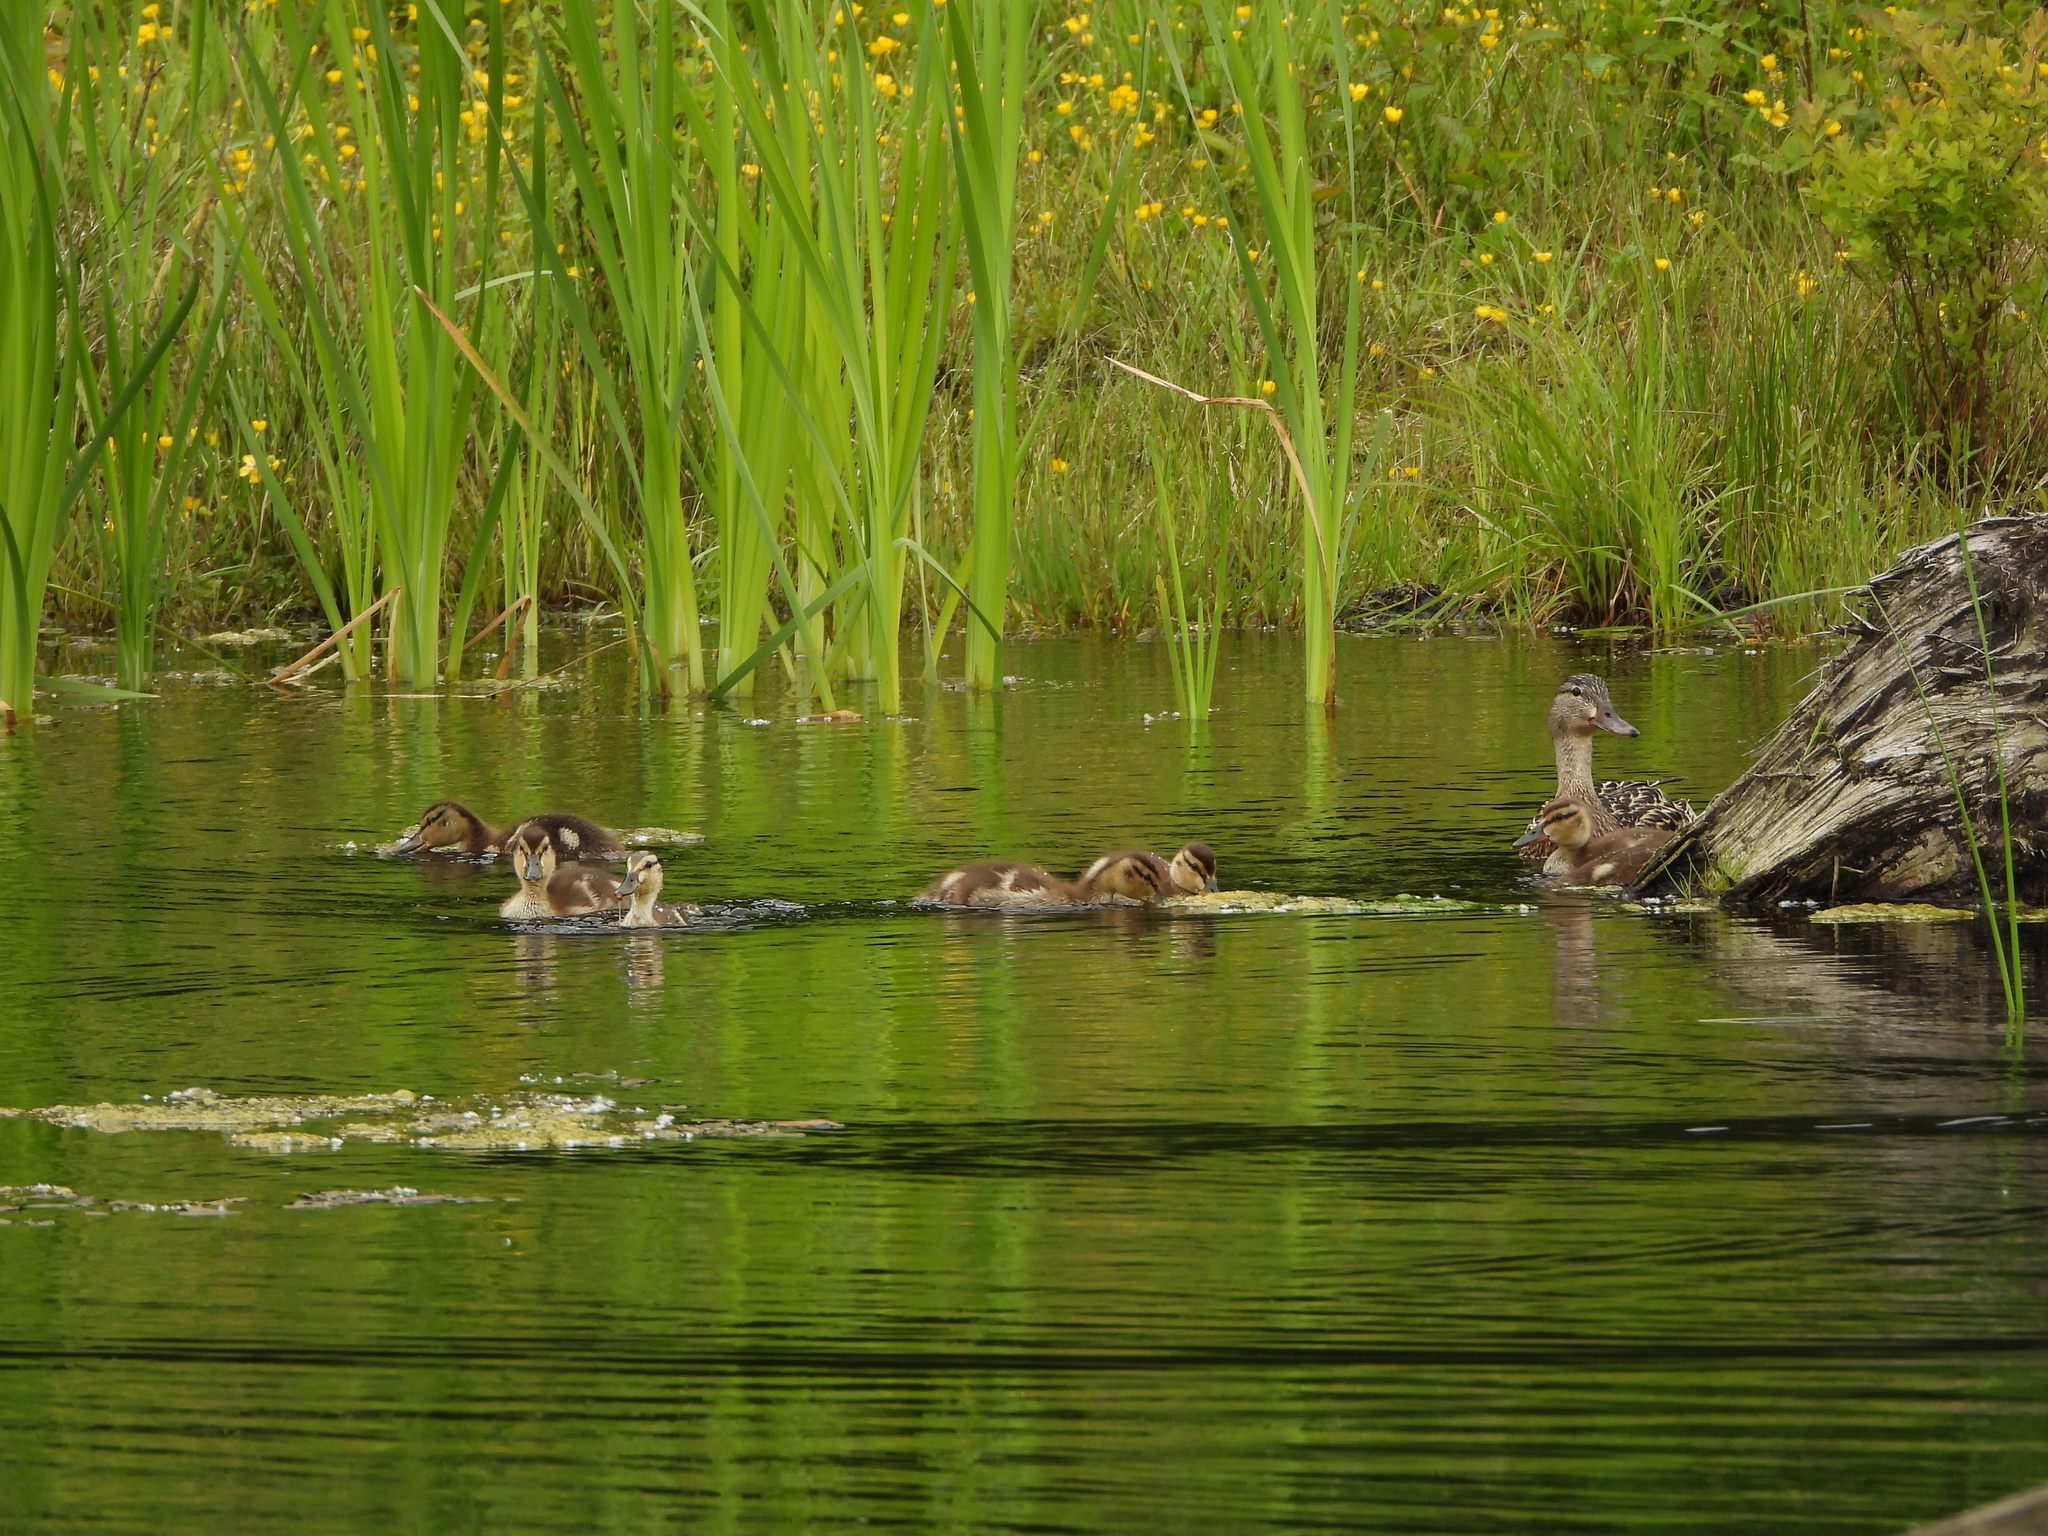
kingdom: Animalia
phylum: Chordata
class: Aves
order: Anseriformes
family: Anatidae
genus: Anas
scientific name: Anas platyrhynchos
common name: Mallard
